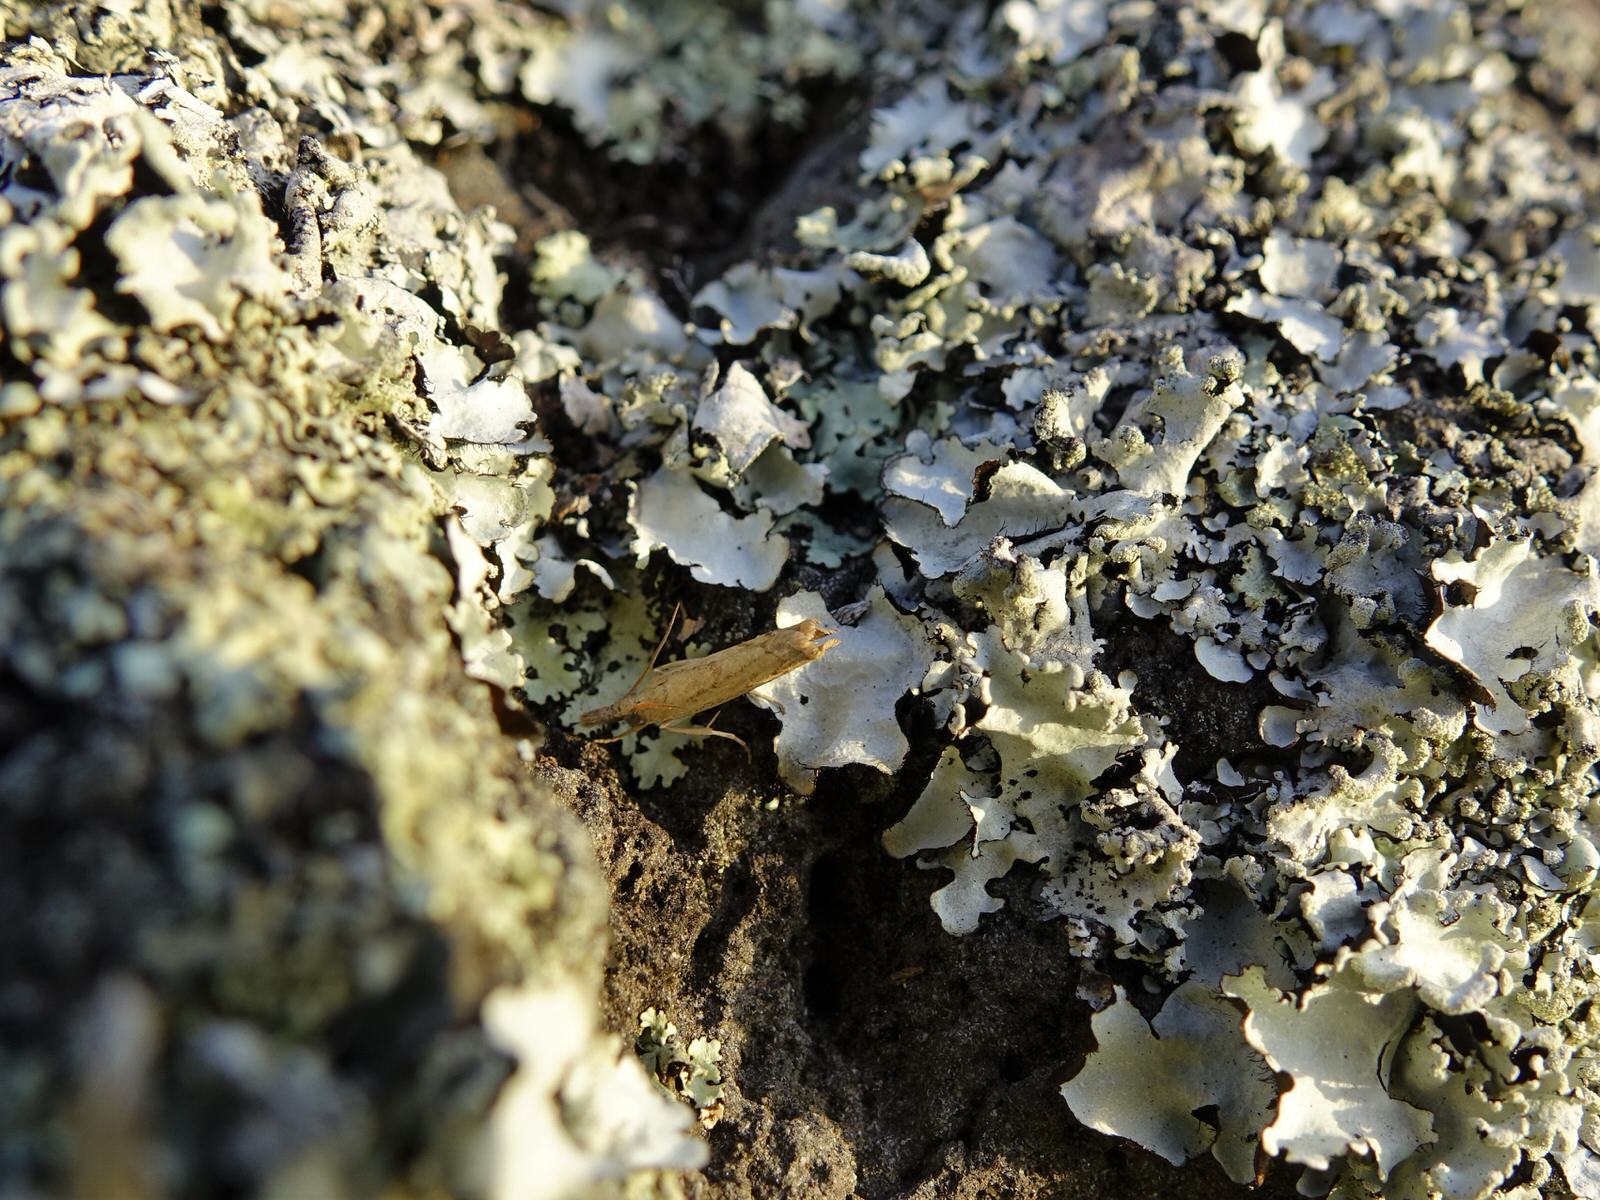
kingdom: Animalia
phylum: Arthropoda
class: Insecta
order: Lepidoptera
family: Crambidae
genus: Culladia
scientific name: Culladia cuneiferellus
